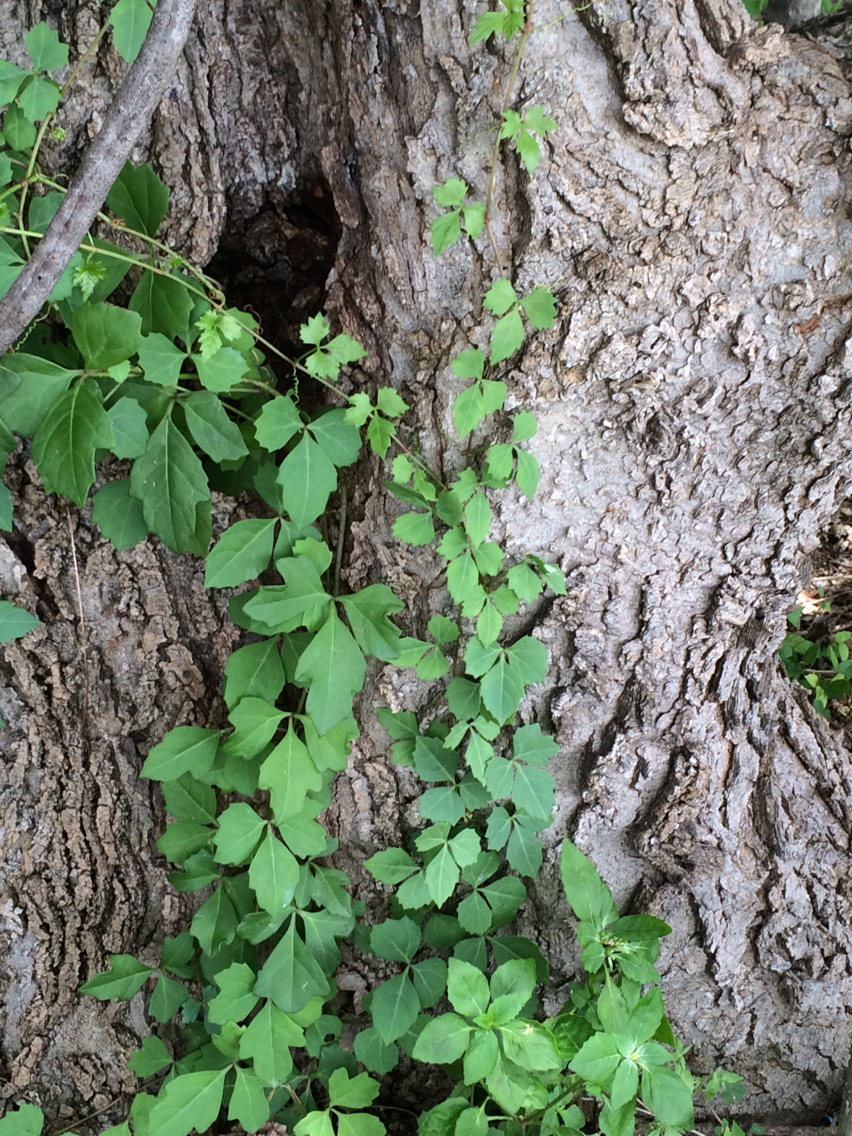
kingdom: Plantae
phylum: Tracheophyta
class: Magnoliopsida
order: Vitales
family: Vitaceae
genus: Cissus
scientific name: Cissus trifoliata
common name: Vine-sorrel
